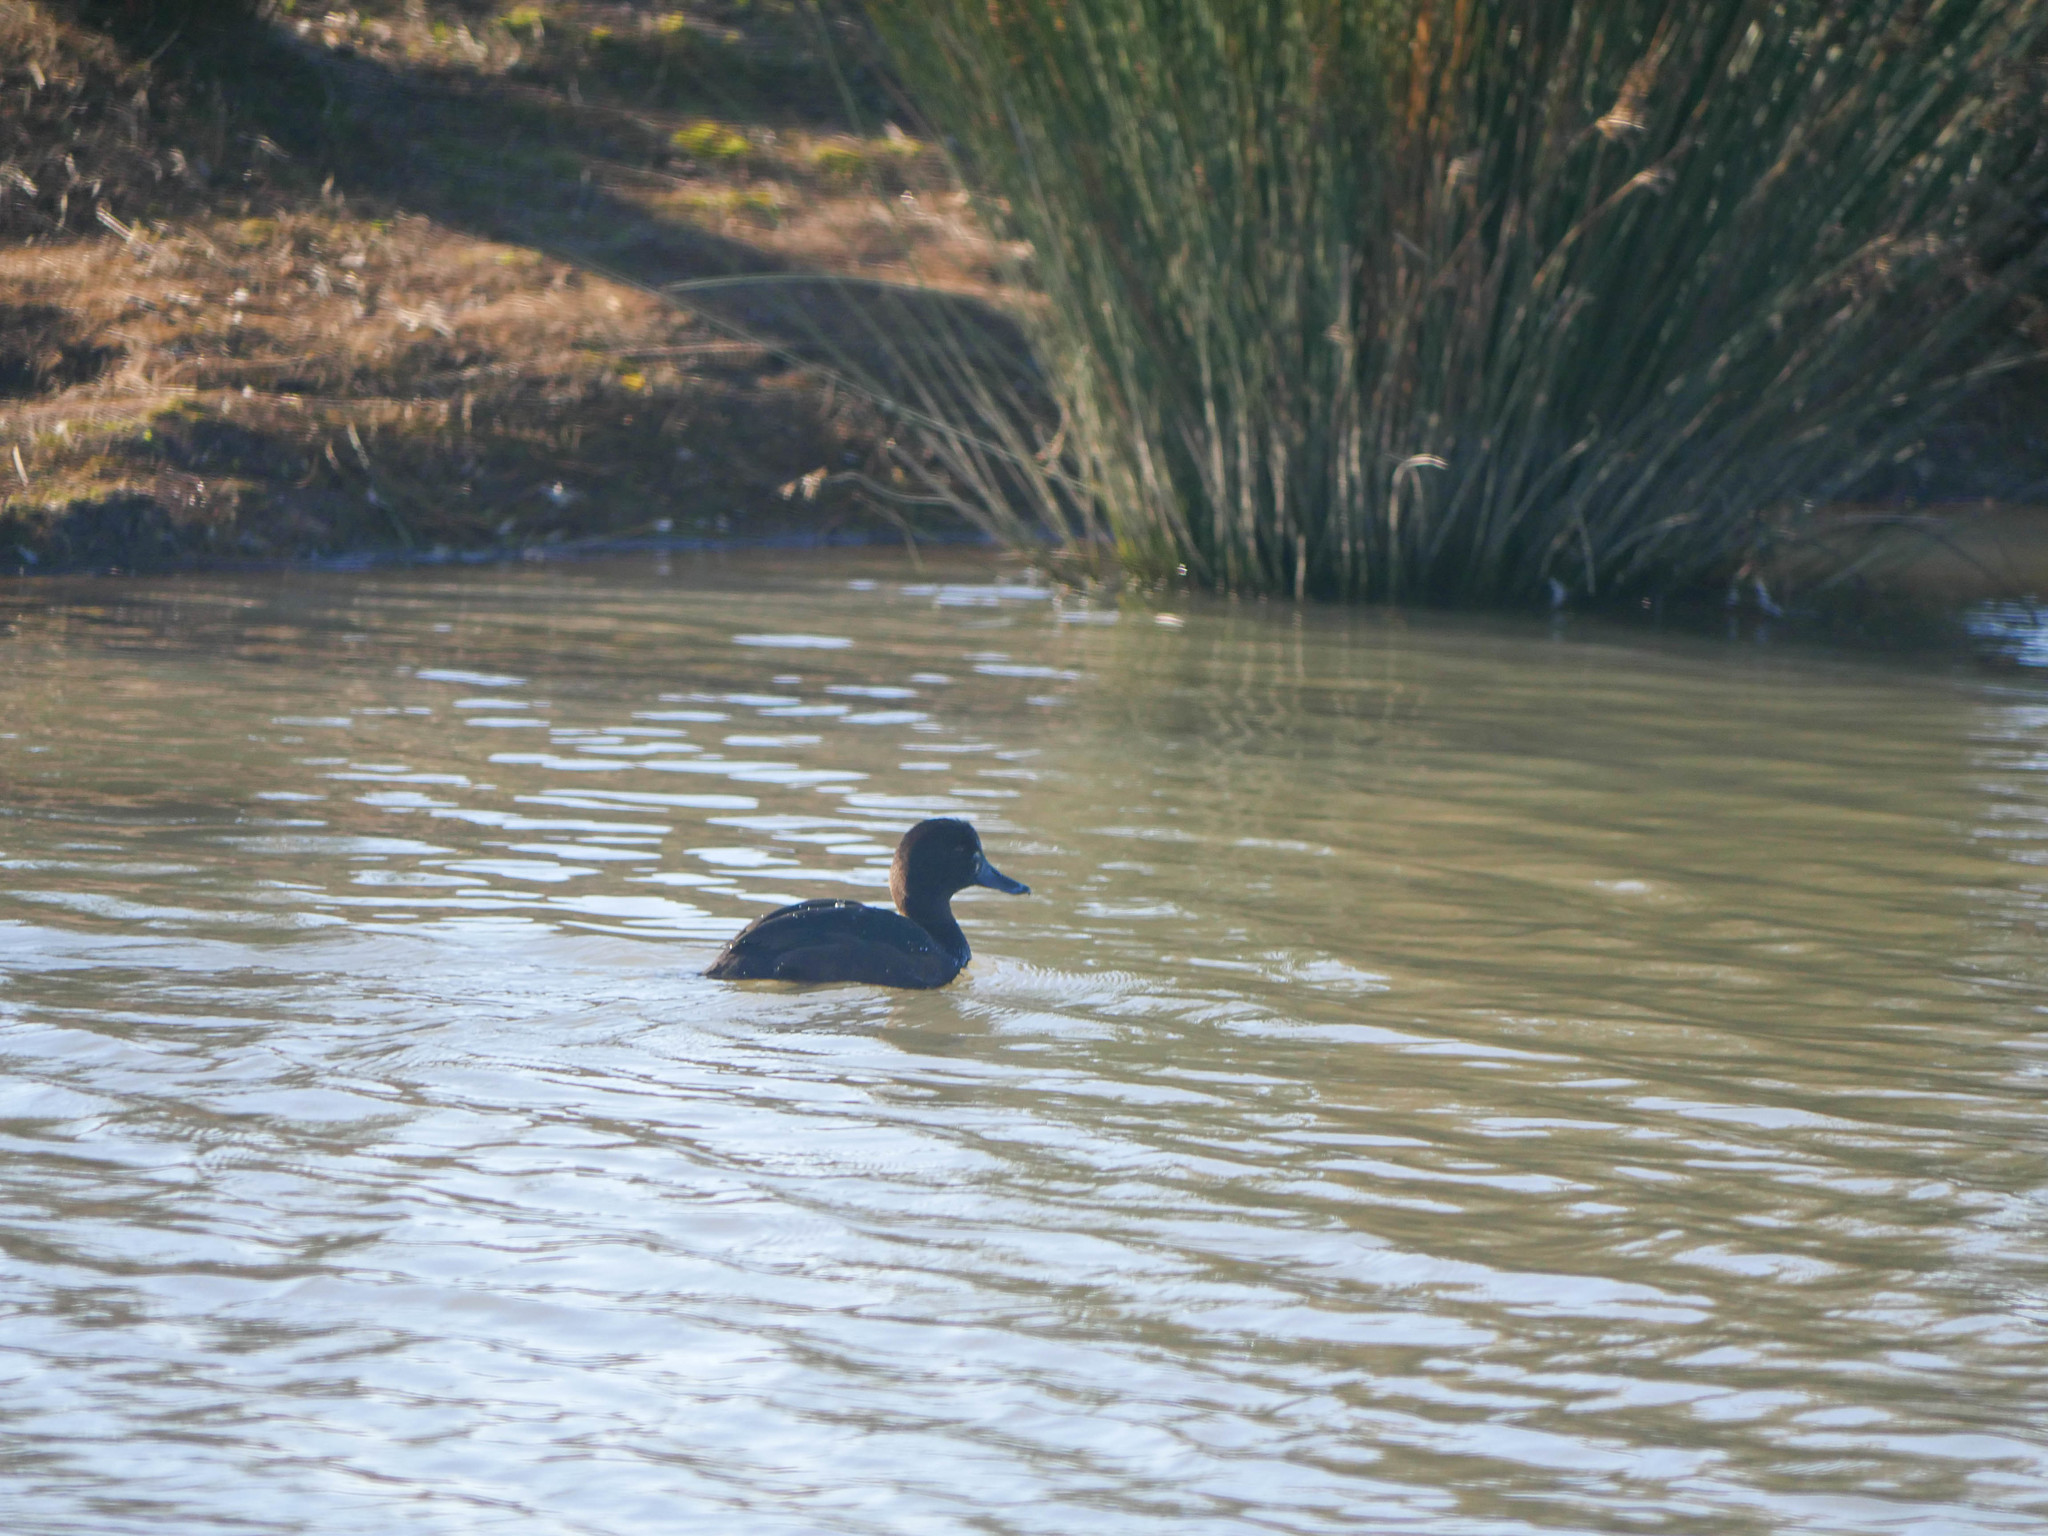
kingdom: Animalia
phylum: Chordata
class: Aves
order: Anseriformes
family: Anatidae
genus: Aythya
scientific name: Aythya novaeseelandiae
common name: New zealand scaup
